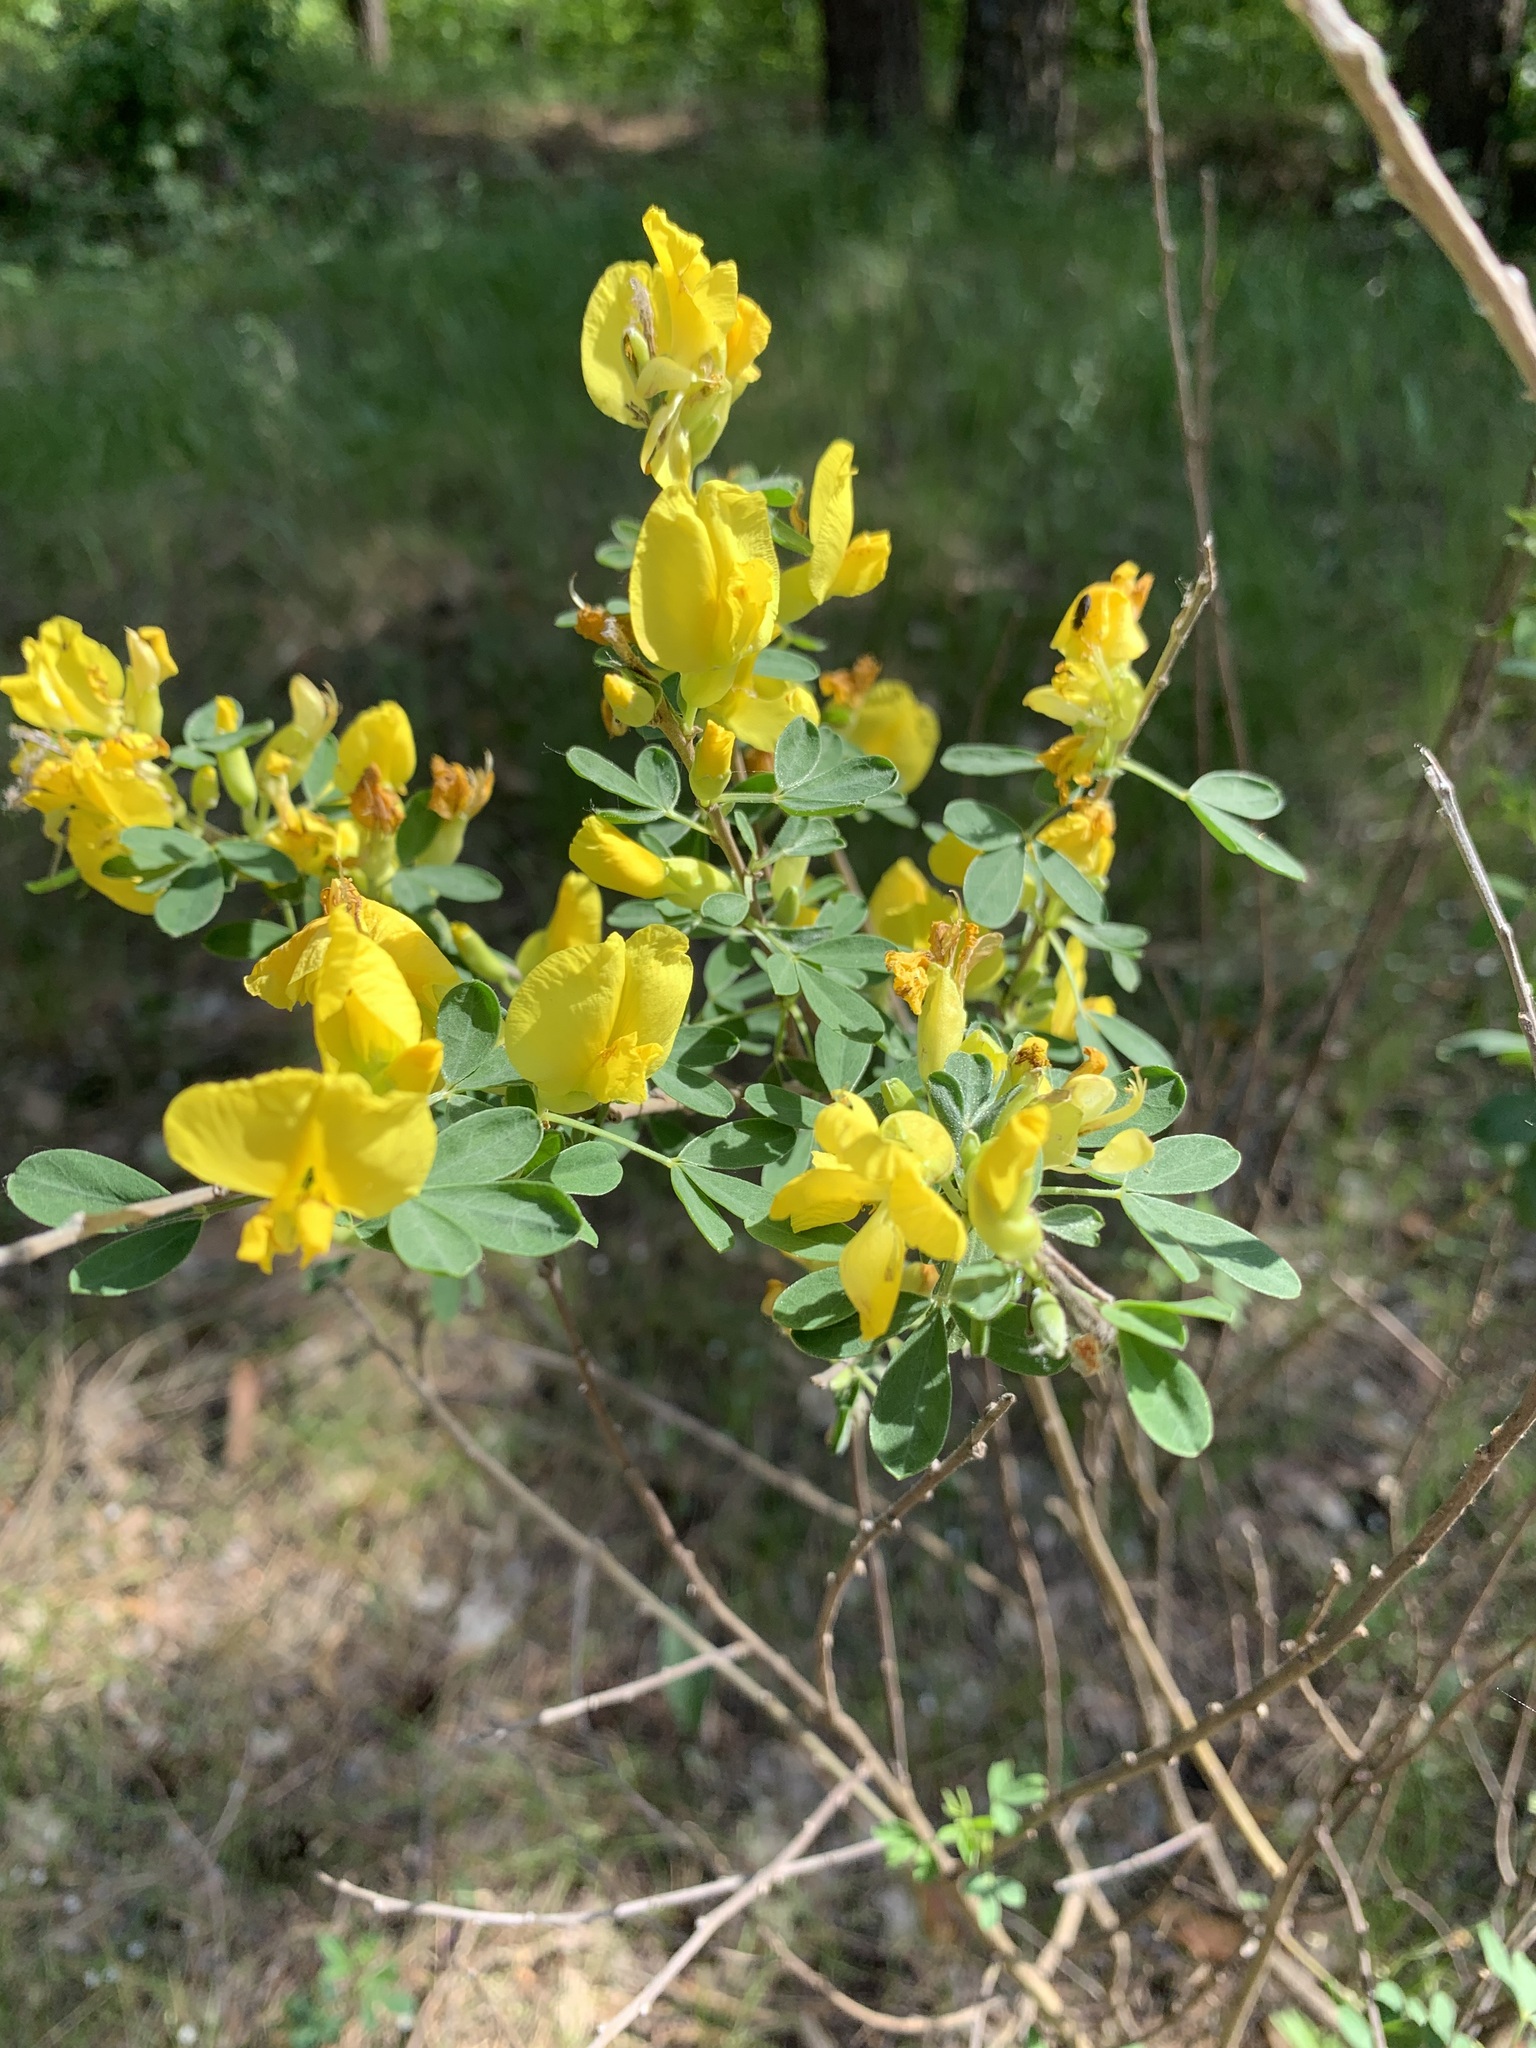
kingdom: Plantae
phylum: Tracheophyta
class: Magnoliopsida
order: Fabales
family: Fabaceae
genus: Chamaecytisus
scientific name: Chamaecytisus ruthenicus
